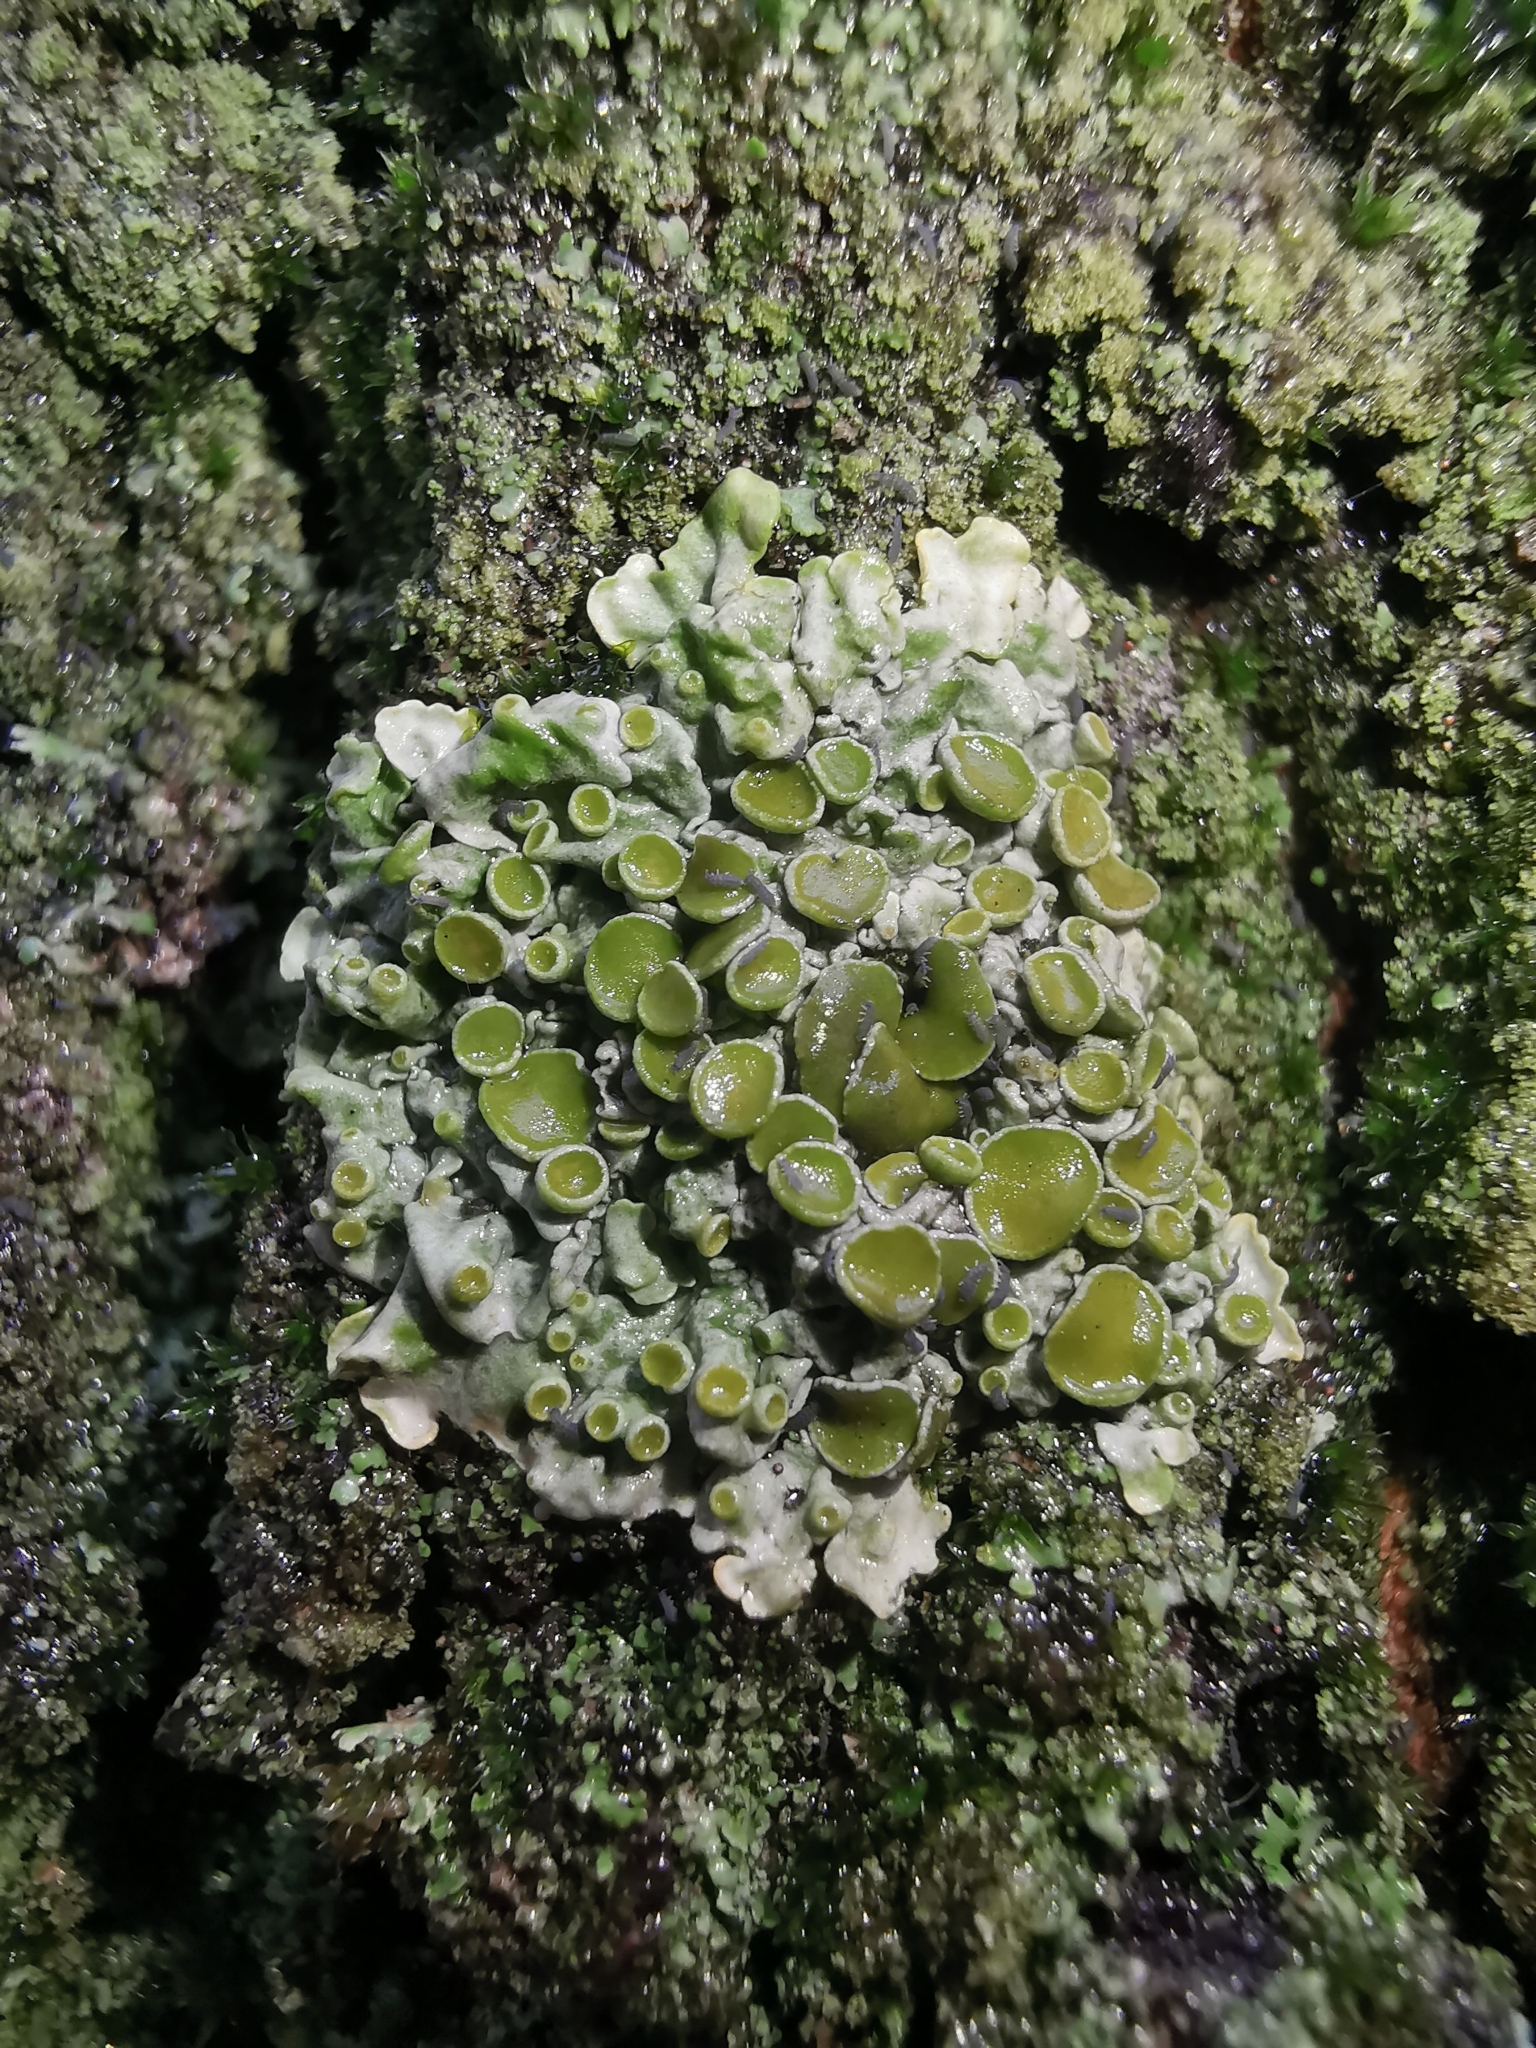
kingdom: Fungi
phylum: Ascomycota
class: Lecanoromycetes
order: Teloschistales
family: Teloschistaceae
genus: Xanthoria
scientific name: Xanthoria parietina
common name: Common orange lichen
